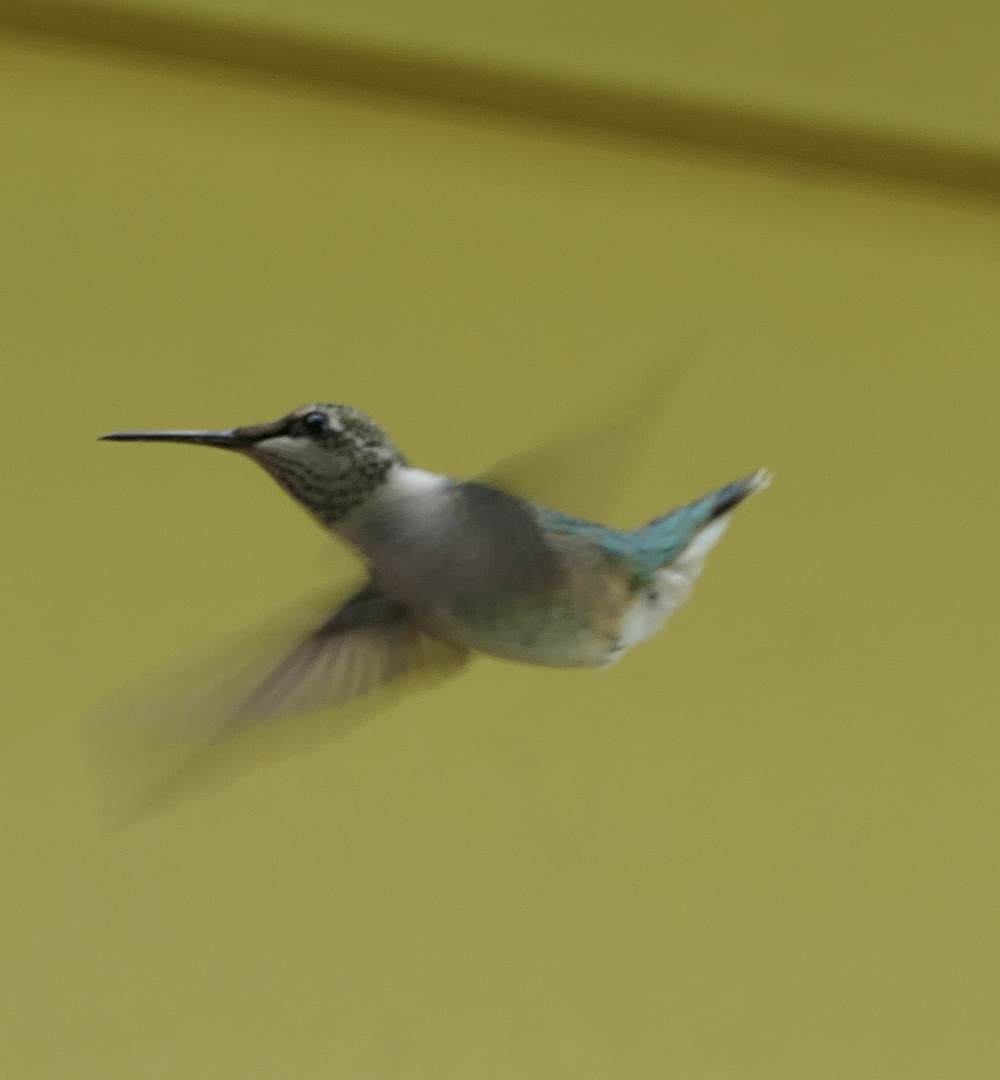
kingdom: Animalia
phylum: Chordata
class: Aves
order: Apodiformes
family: Trochilidae
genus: Archilochus
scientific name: Archilochus colubris
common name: Ruby-throated hummingbird
